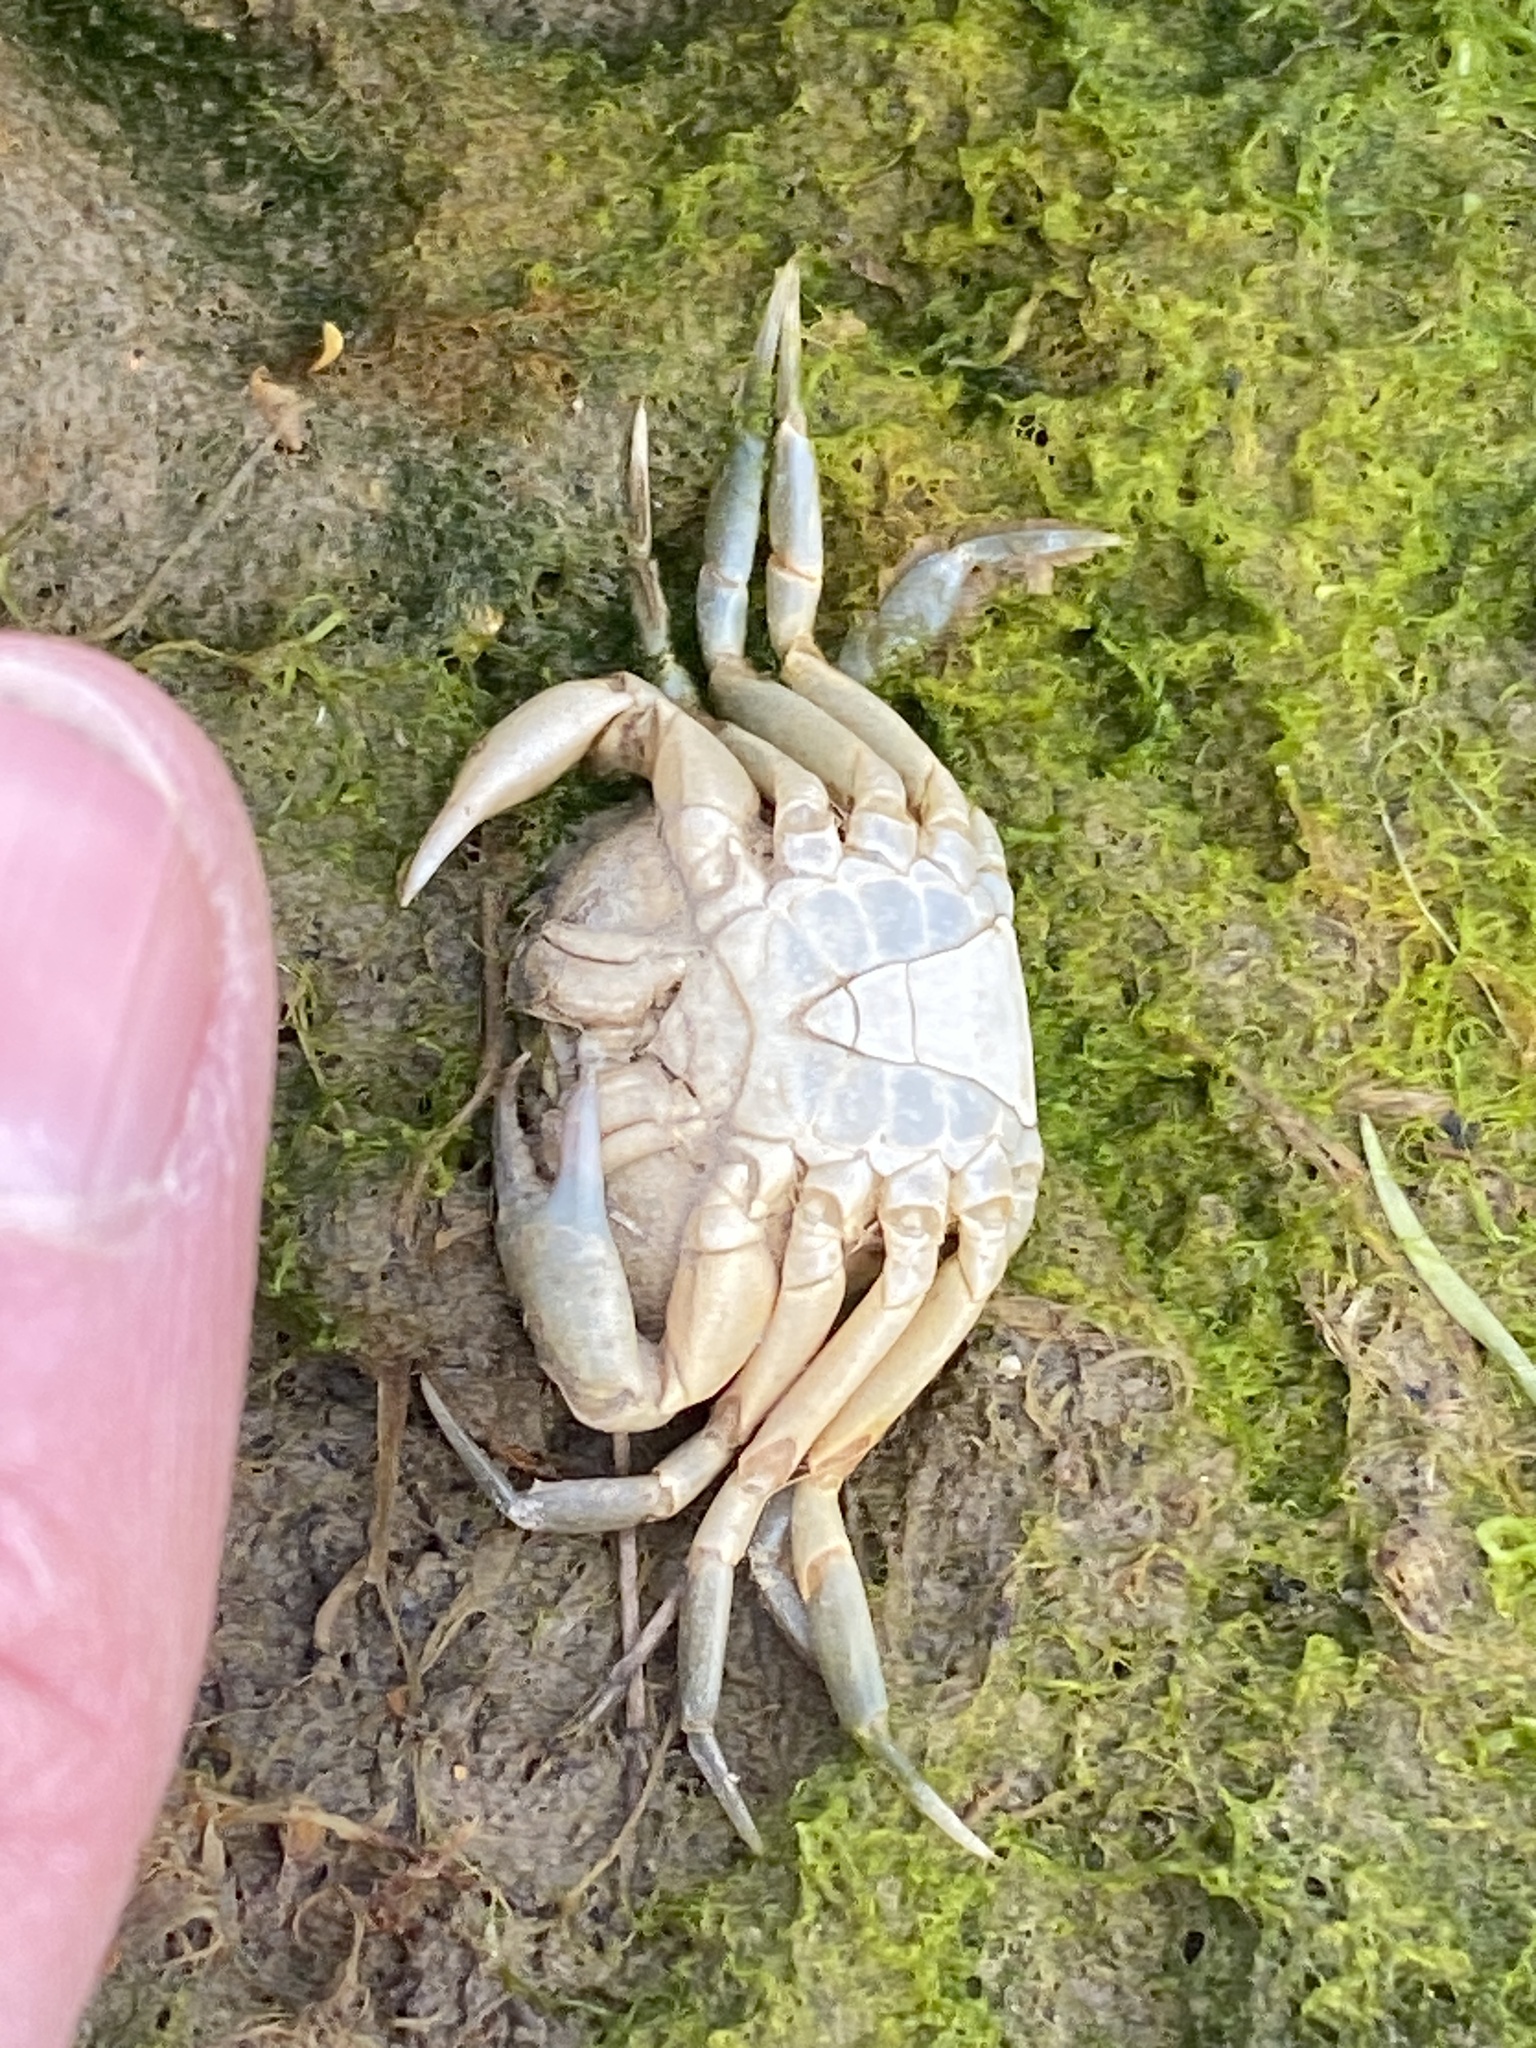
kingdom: Animalia
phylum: Arthropoda
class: Malacostraca
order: Decapoda
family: Carcinidae
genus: Carcinus
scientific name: Carcinus maenas
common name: European green crab
